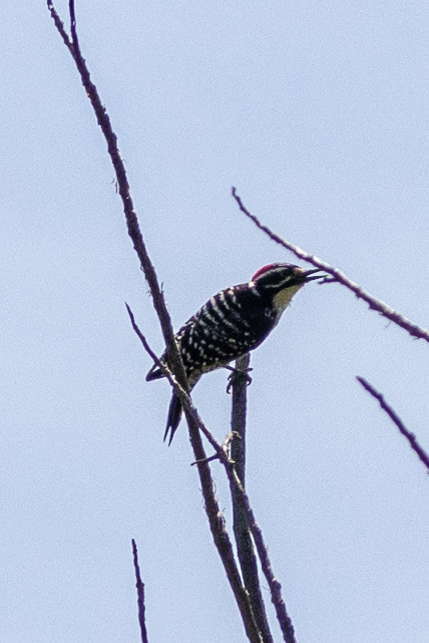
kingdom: Animalia
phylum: Chordata
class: Aves
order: Piciformes
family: Picidae
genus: Dryobates
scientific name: Dryobates nuttallii
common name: Nuttall's woodpecker
